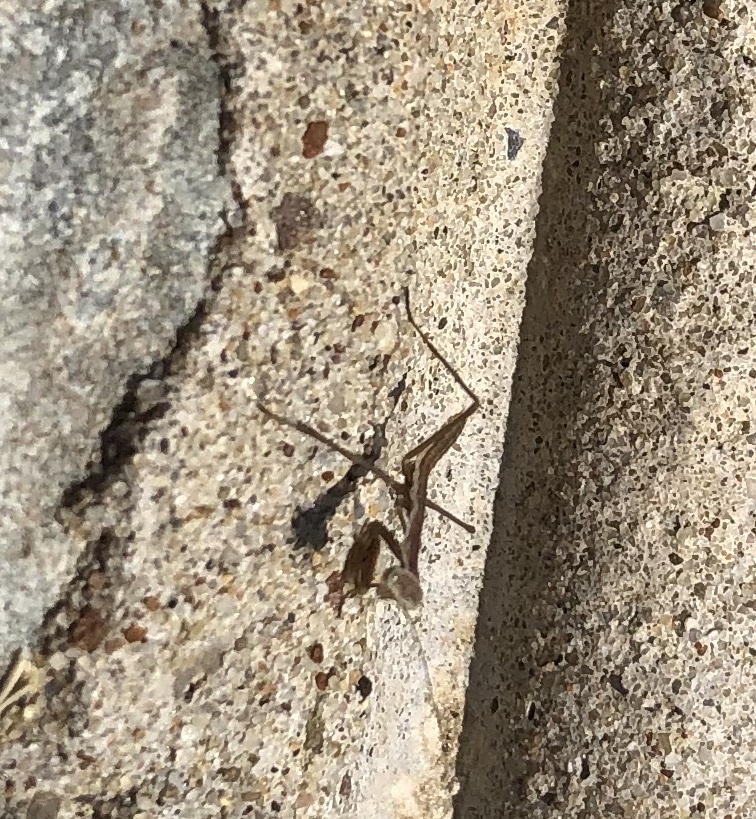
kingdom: Animalia
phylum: Arthropoda
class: Insecta
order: Mantodea
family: Mantidae
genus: Tenodera
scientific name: Tenodera sinensis
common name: Chinese mantis
